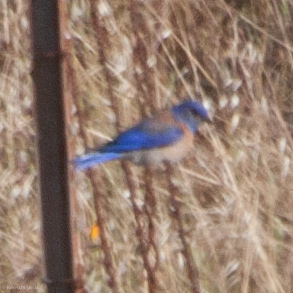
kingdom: Animalia
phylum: Chordata
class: Aves
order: Passeriformes
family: Turdidae
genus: Sialia
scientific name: Sialia mexicana
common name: Western bluebird
